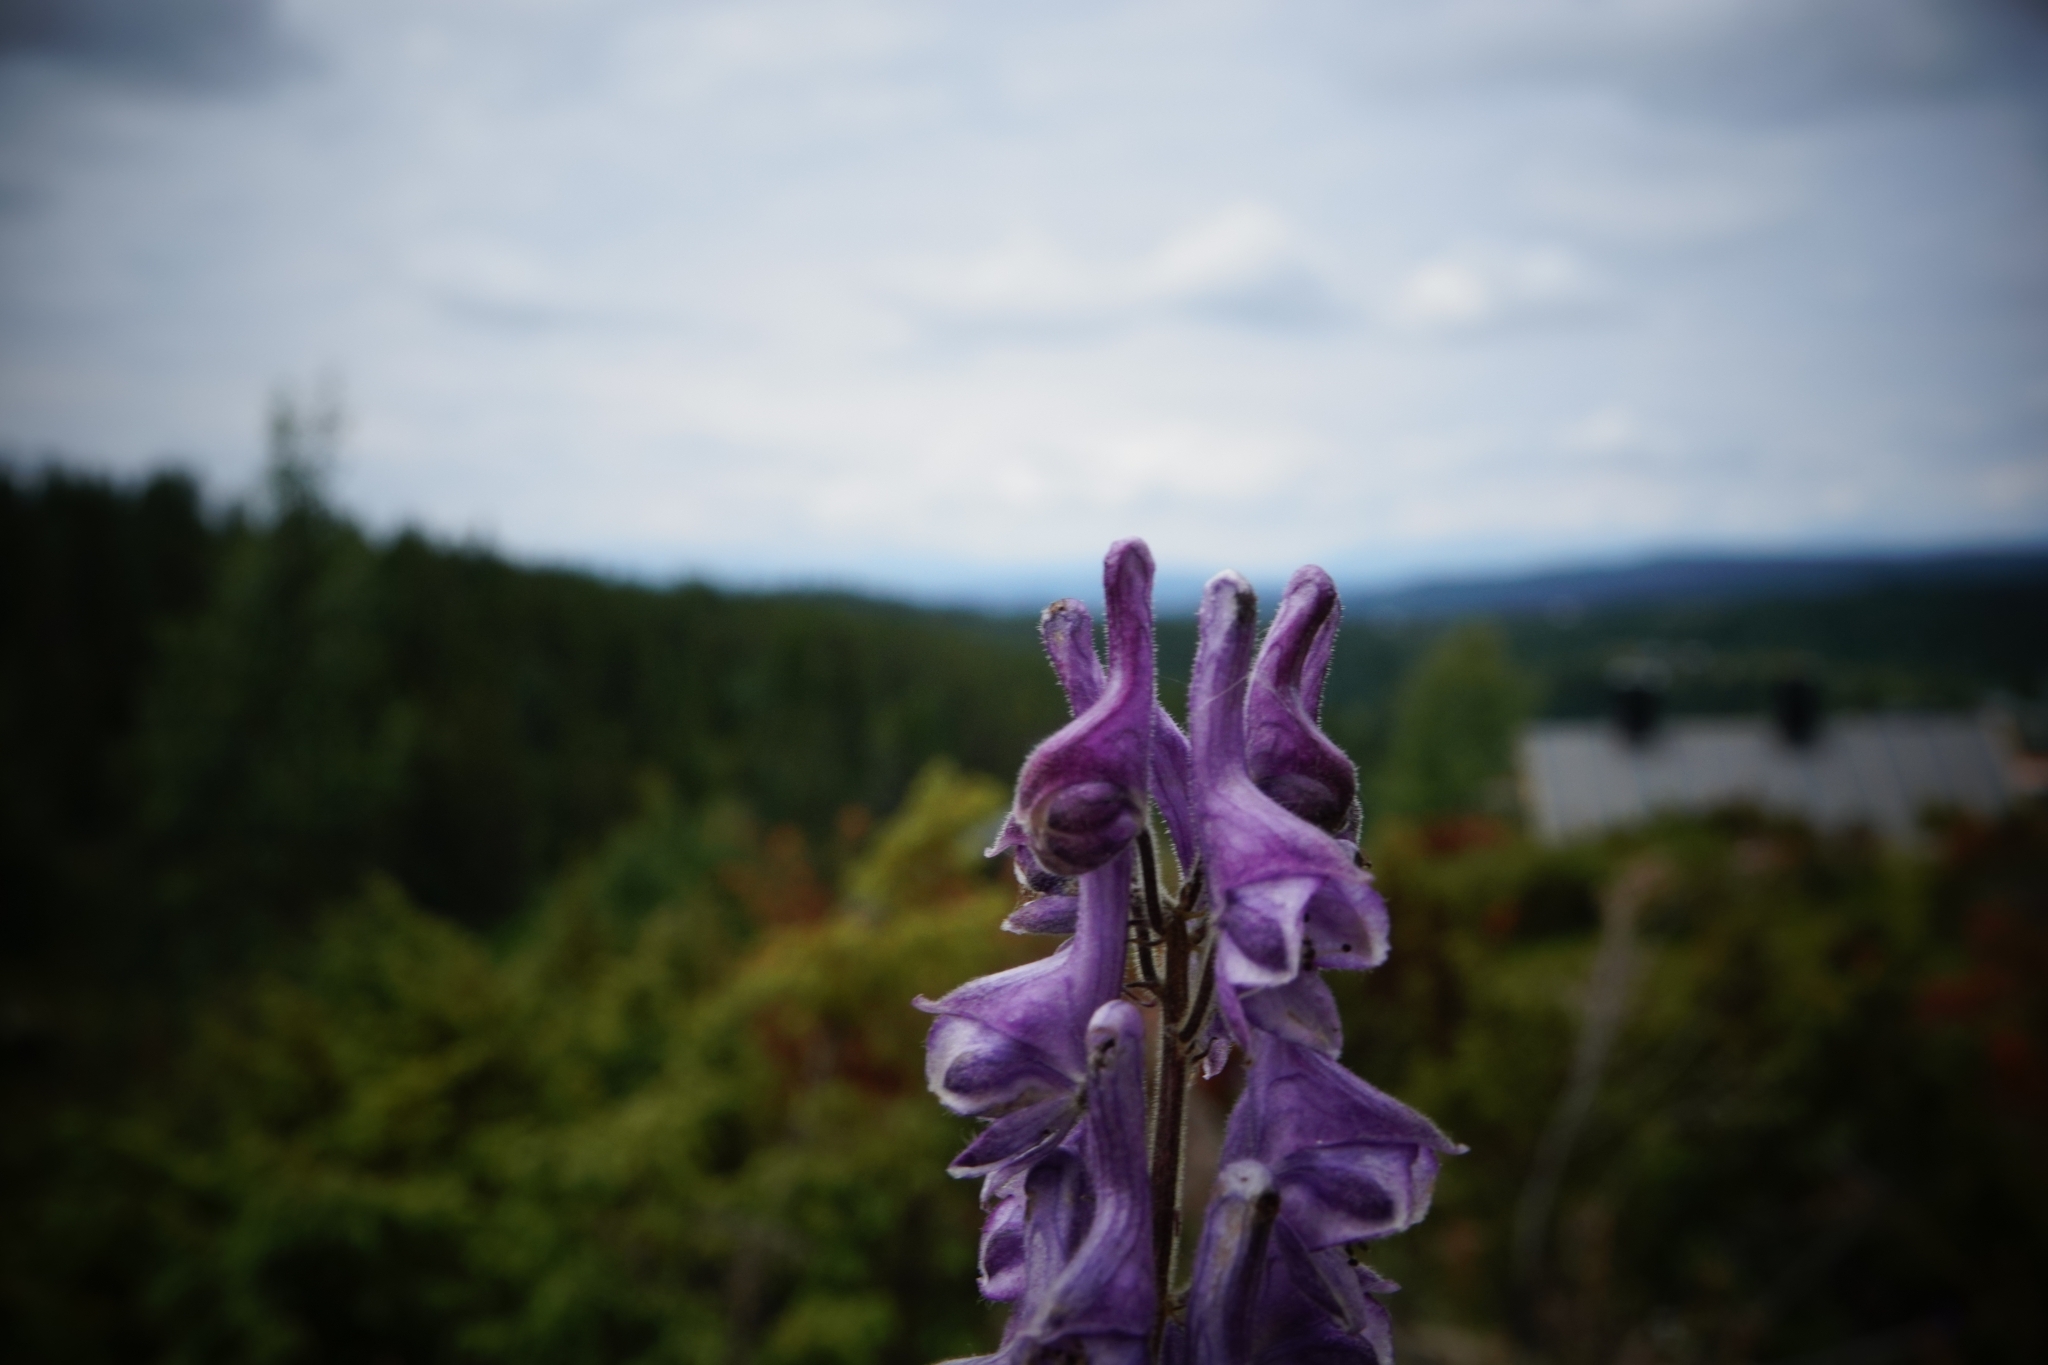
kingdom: Plantae
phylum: Tracheophyta
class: Magnoliopsida
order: Ranunculales
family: Ranunculaceae
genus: Aconitum
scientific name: Aconitum septentrionale
